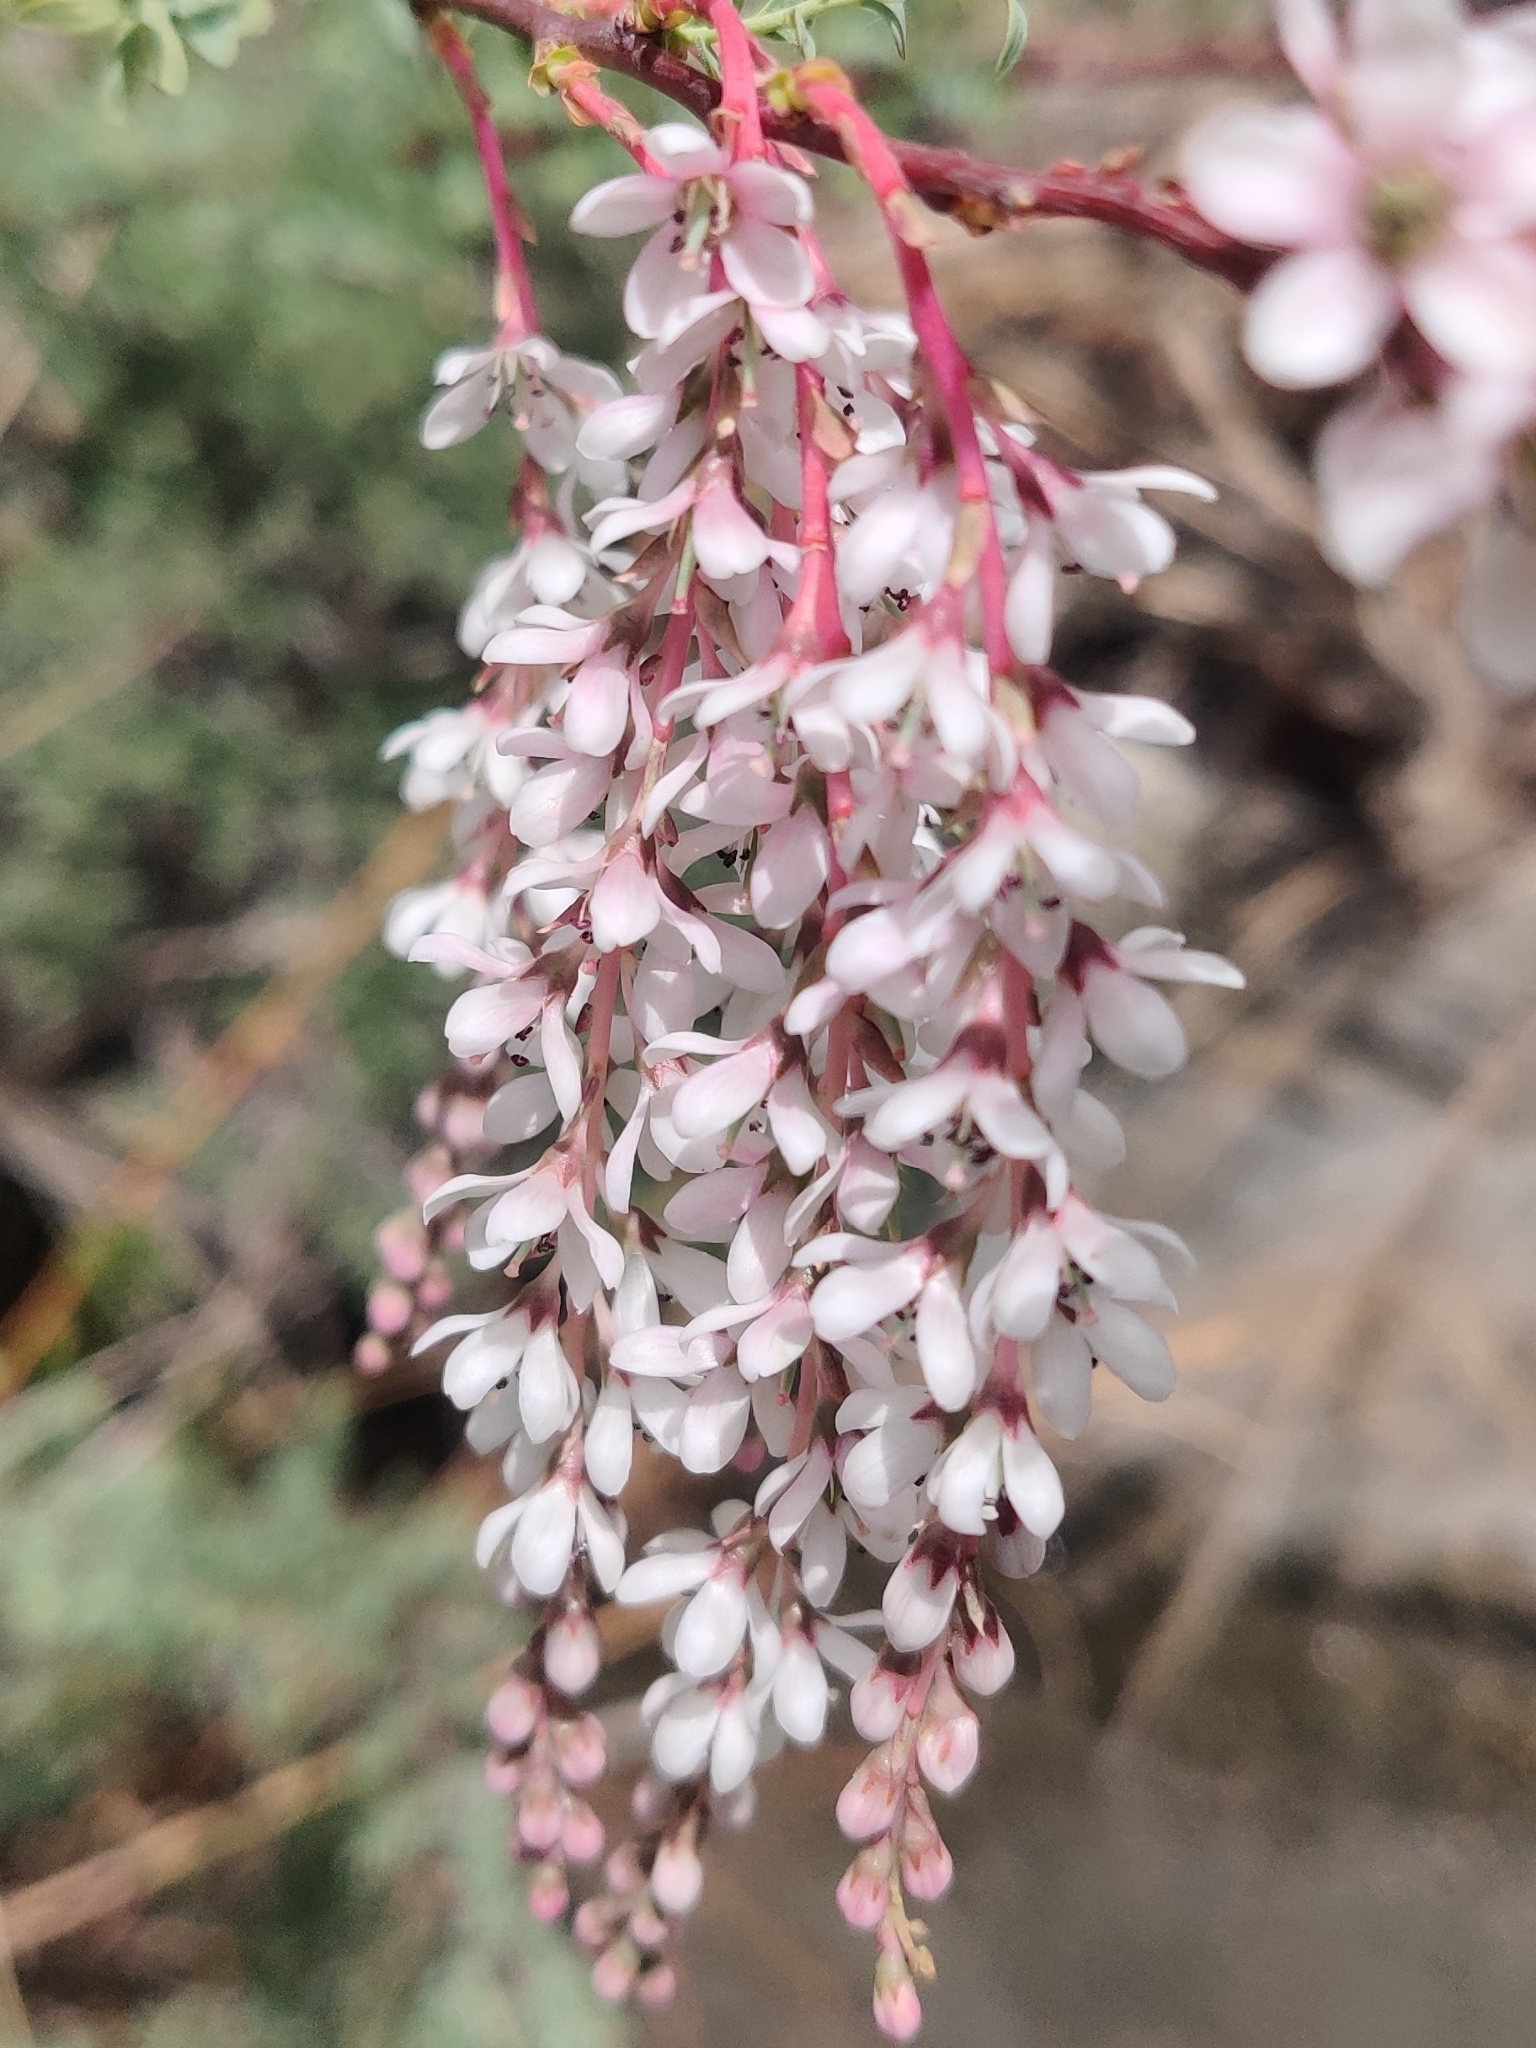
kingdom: Plantae
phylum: Tracheophyta
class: Magnoliopsida
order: Caryophyllales
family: Tamaricaceae
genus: Myrtama
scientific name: Myrtama elegans
